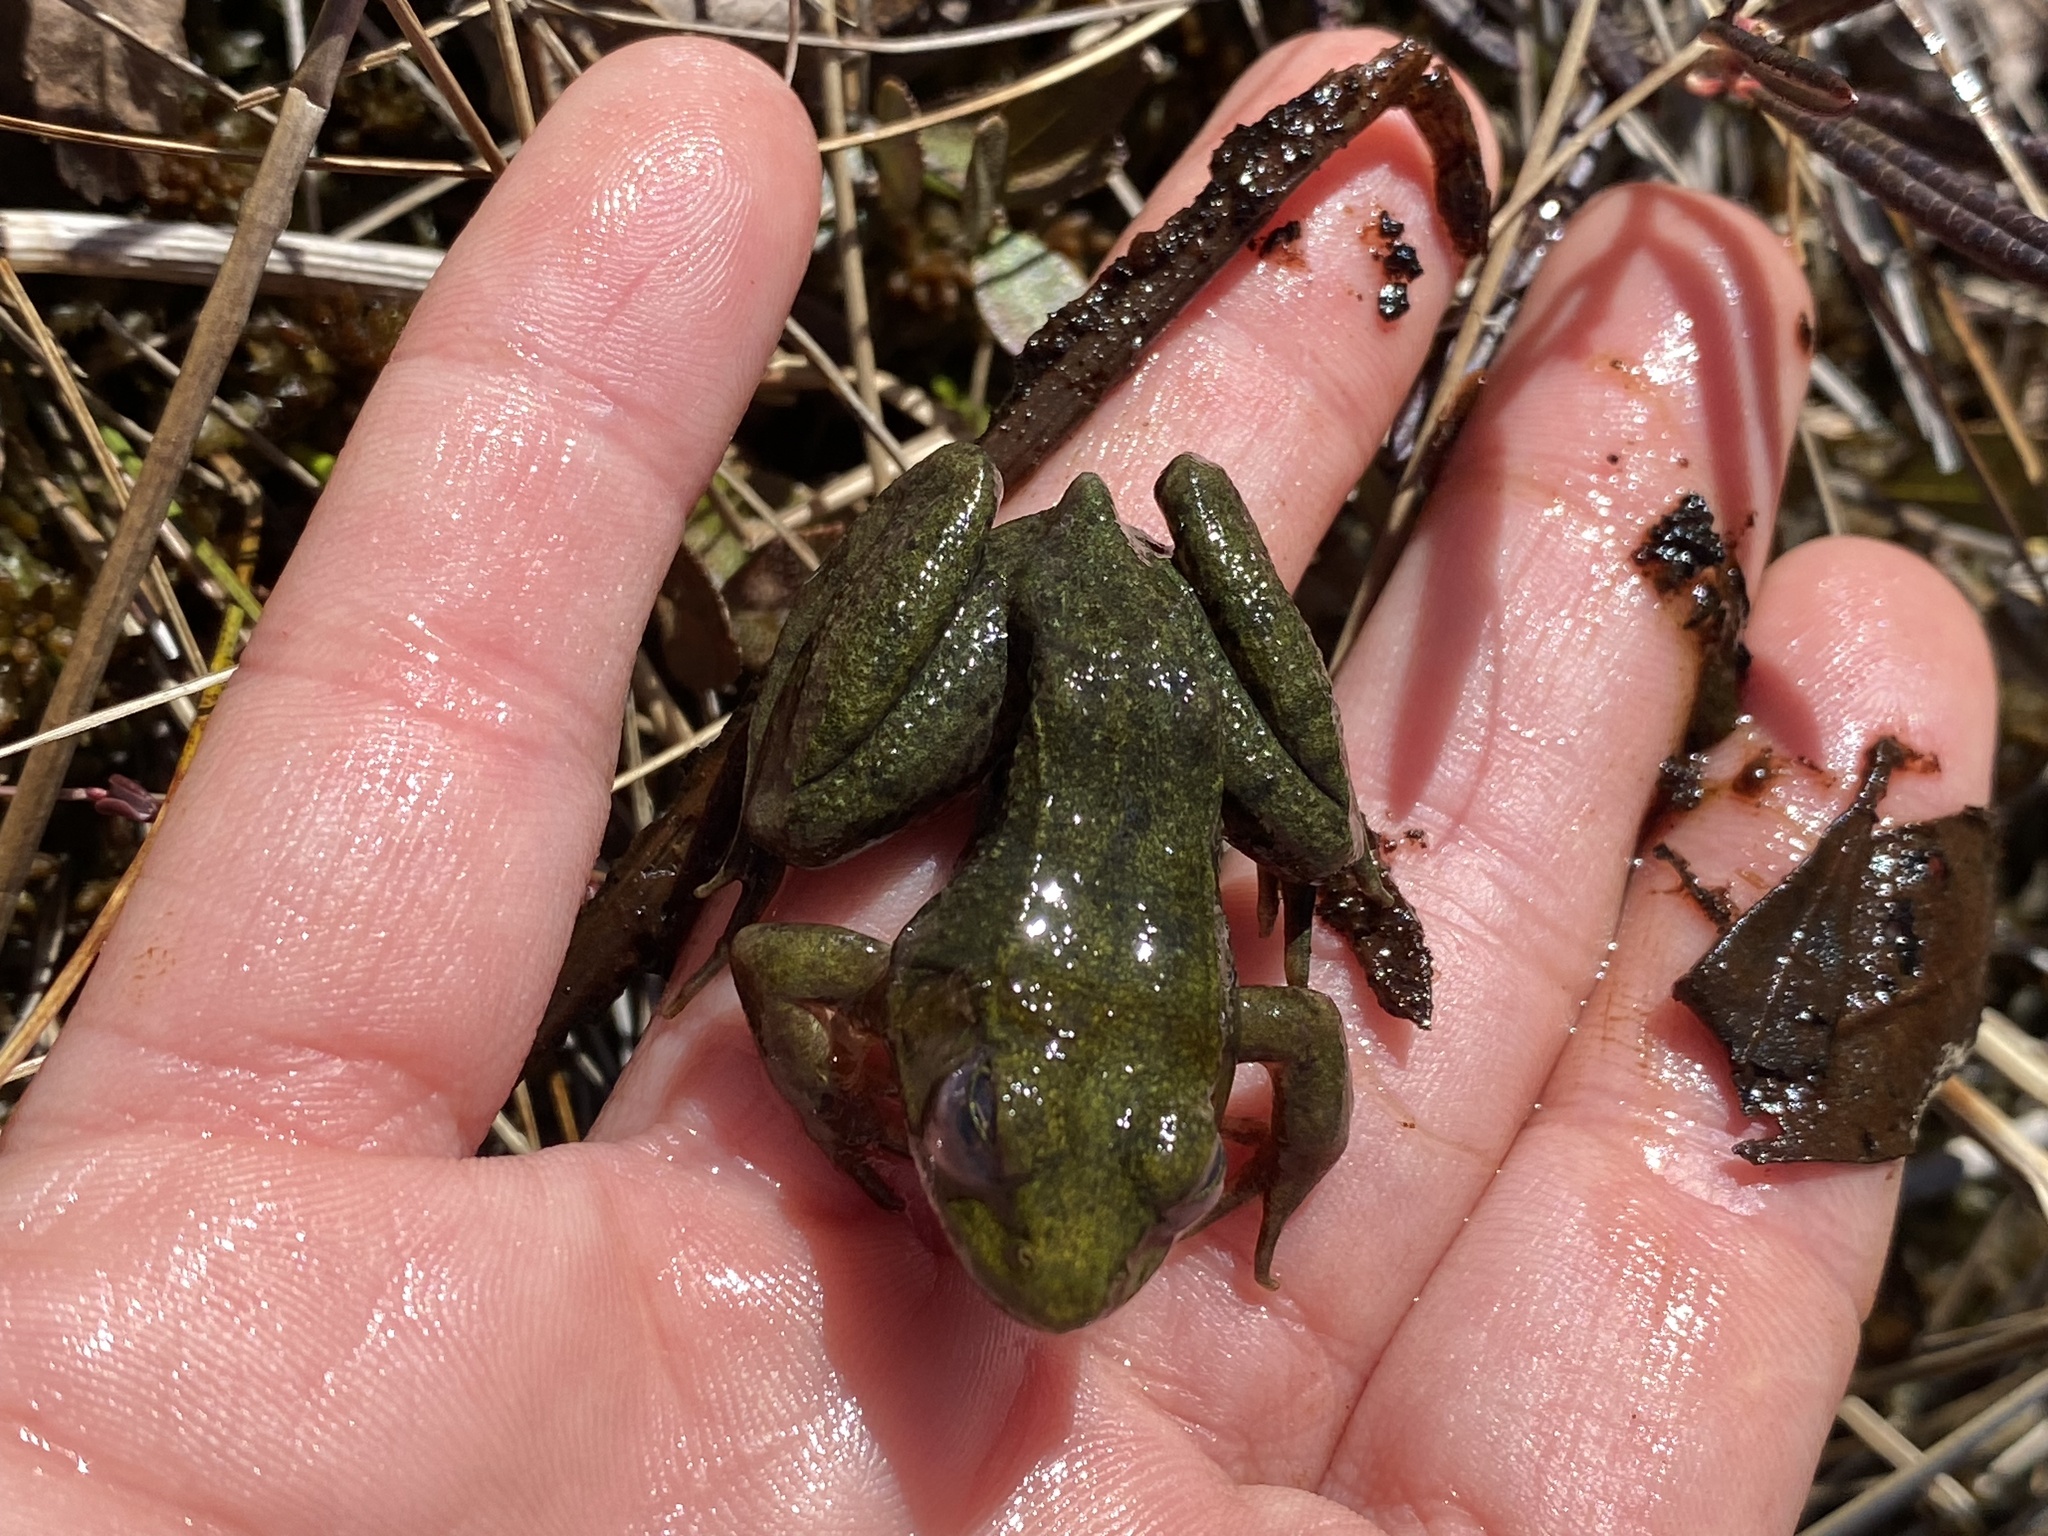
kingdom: Animalia
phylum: Chordata
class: Amphibia
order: Anura
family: Ranidae
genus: Lithobates
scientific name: Lithobates clamitans
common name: Green frog
